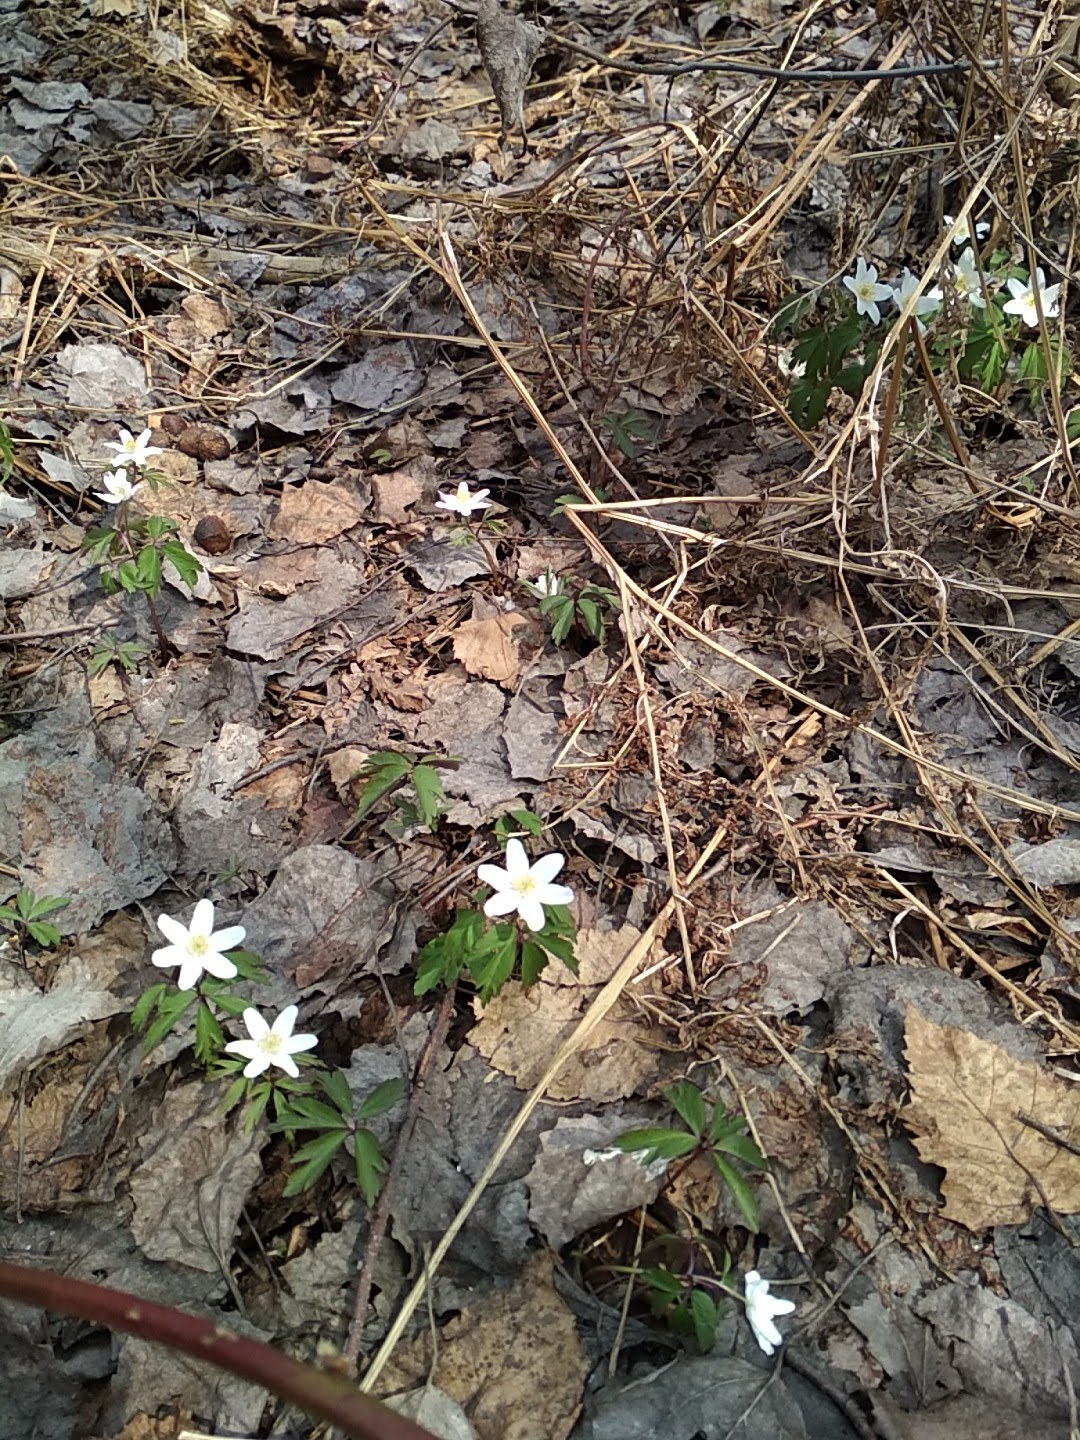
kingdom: Plantae
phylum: Tracheophyta
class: Magnoliopsida
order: Ranunculales
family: Ranunculaceae
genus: Anemone
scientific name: Anemone nemorosa
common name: Wood anemone
